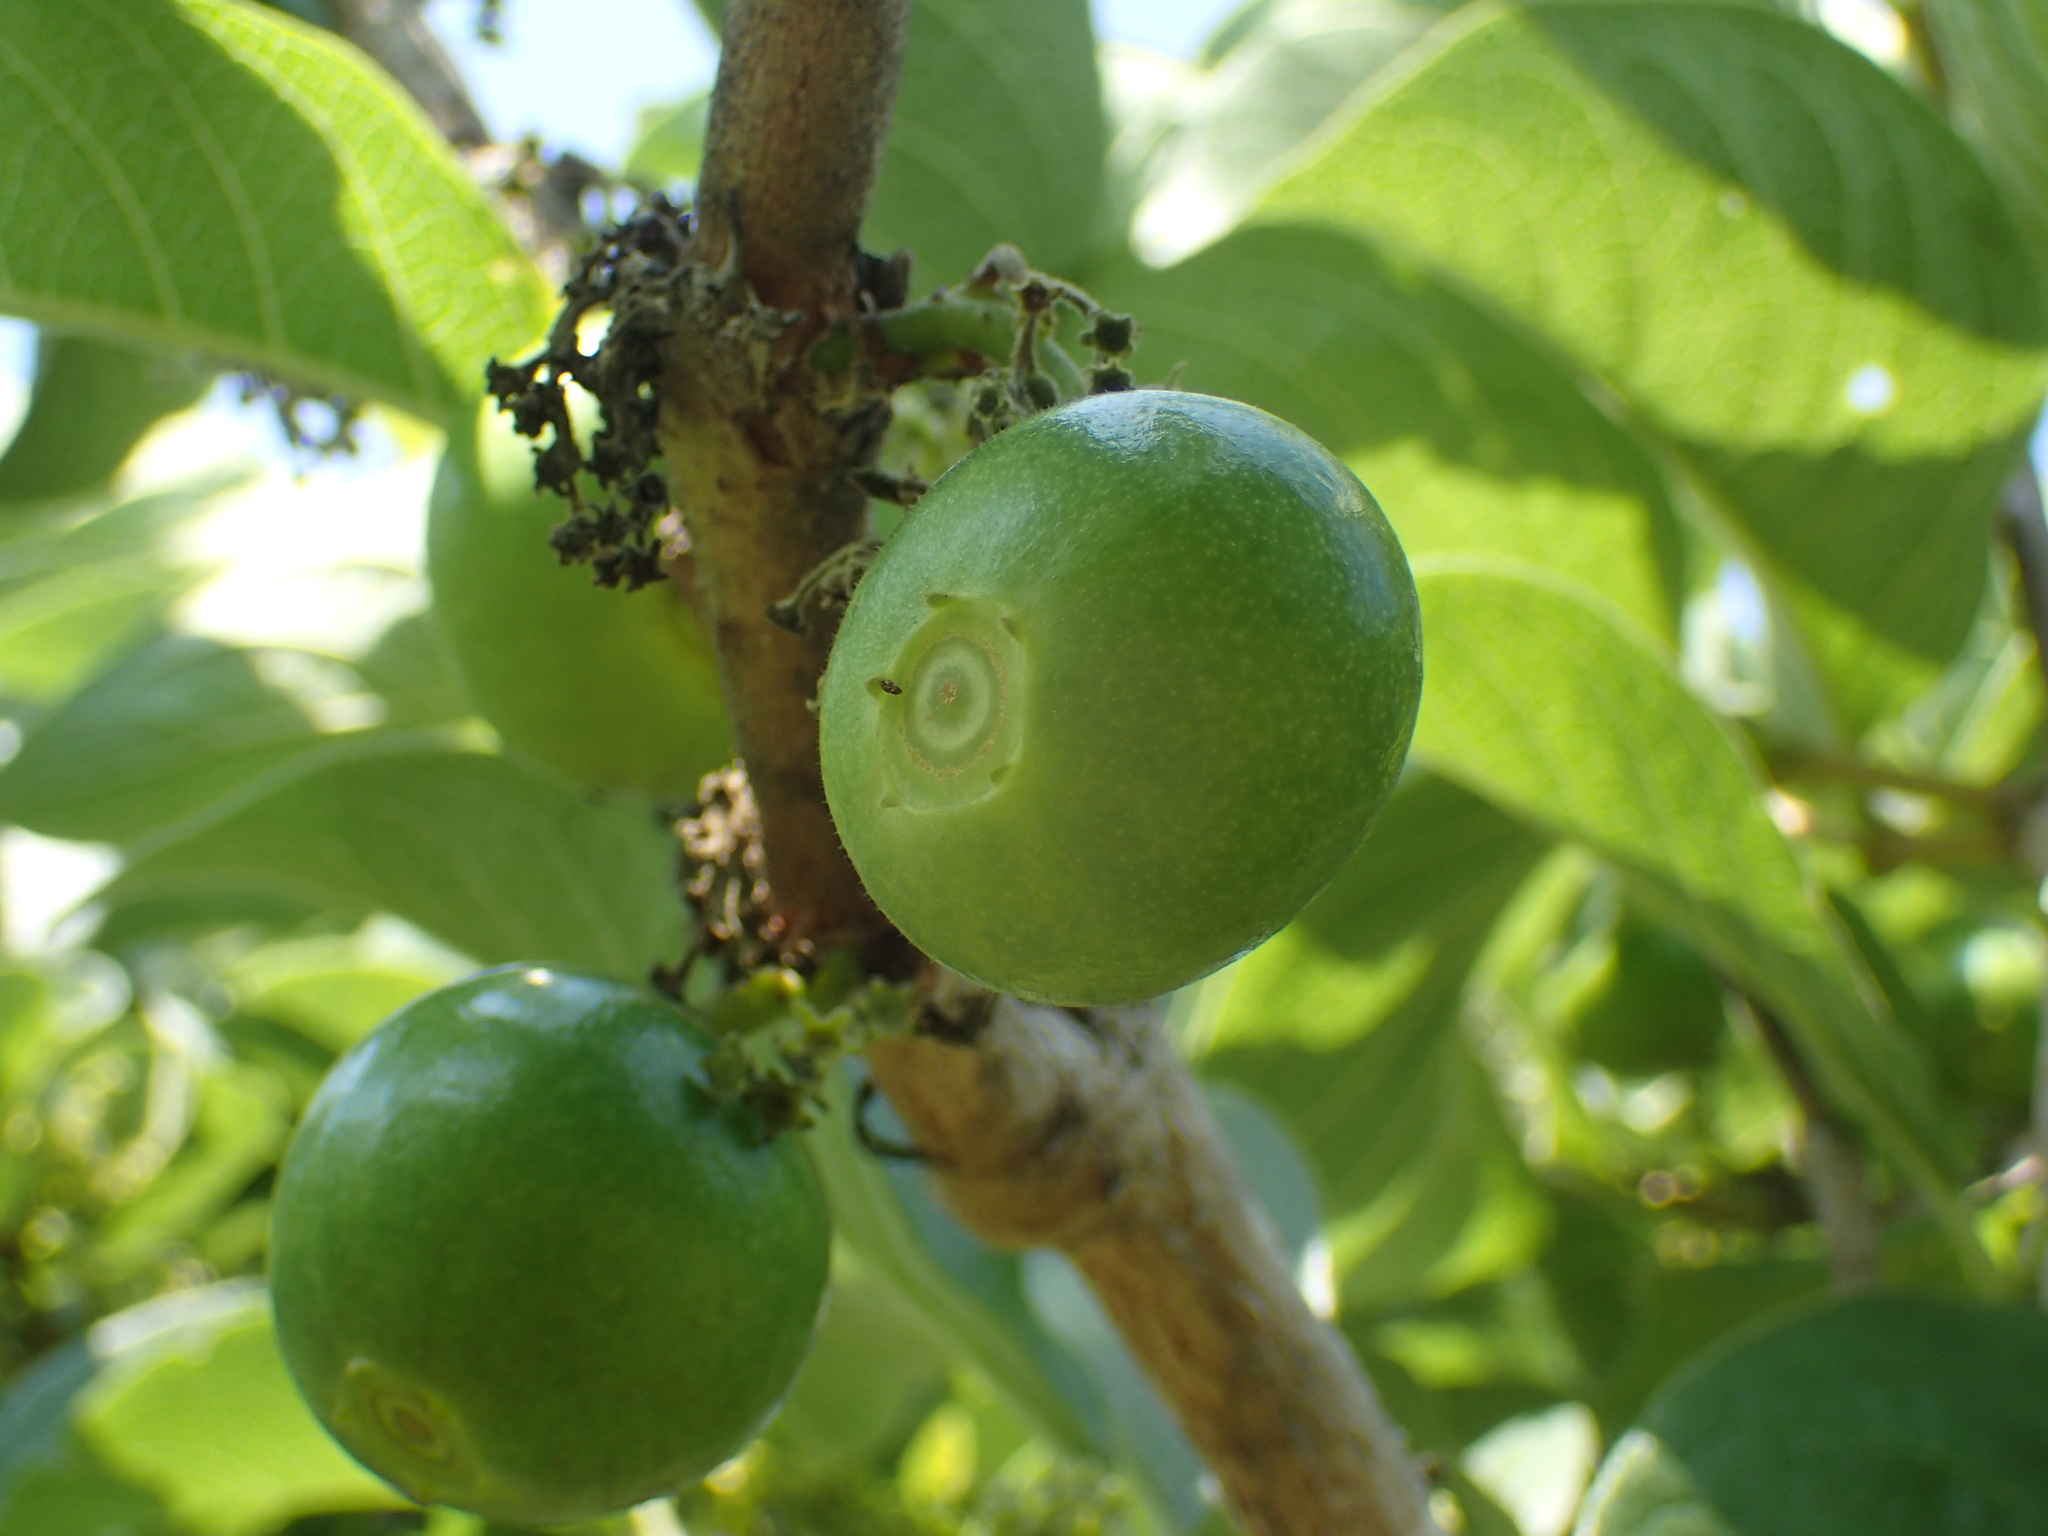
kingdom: Plantae
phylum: Tracheophyta
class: Magnoliopsida
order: Gentianales
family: Rubiaceae
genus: Vangueria
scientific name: Vangueria infausta
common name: Medlar
